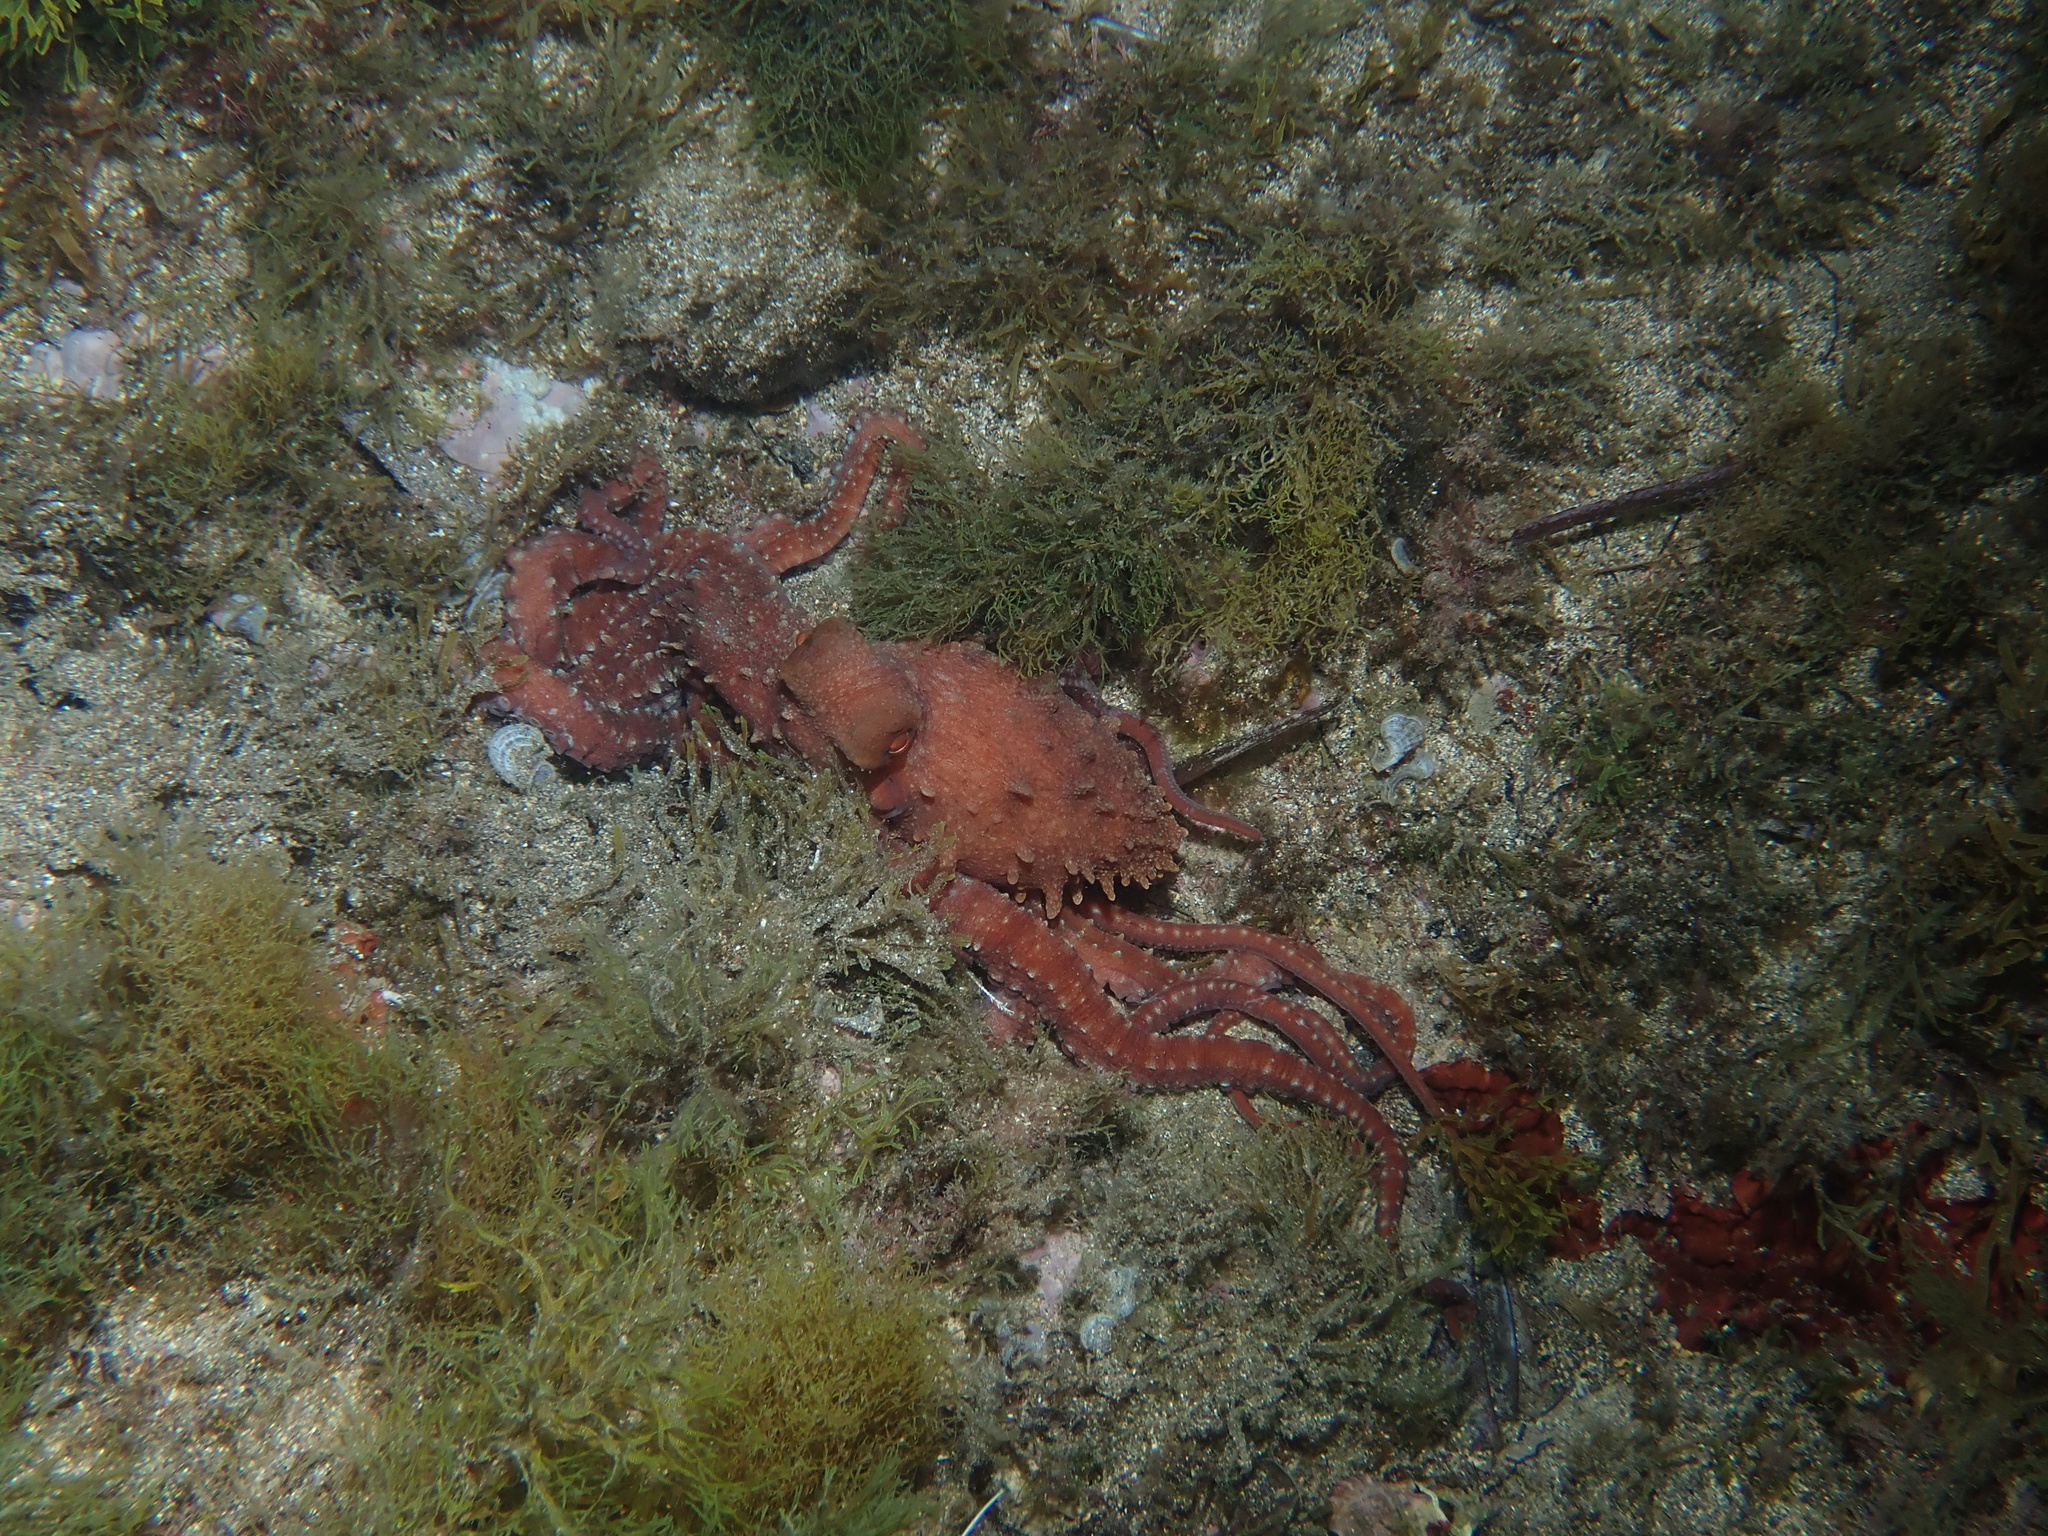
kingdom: Animalia
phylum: Mollusca
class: Cephalopoda
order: Octopoda
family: Octopodidae
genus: Callistoctopus
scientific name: Callistoctopus macropus
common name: Atlantic white-spotted octopus
